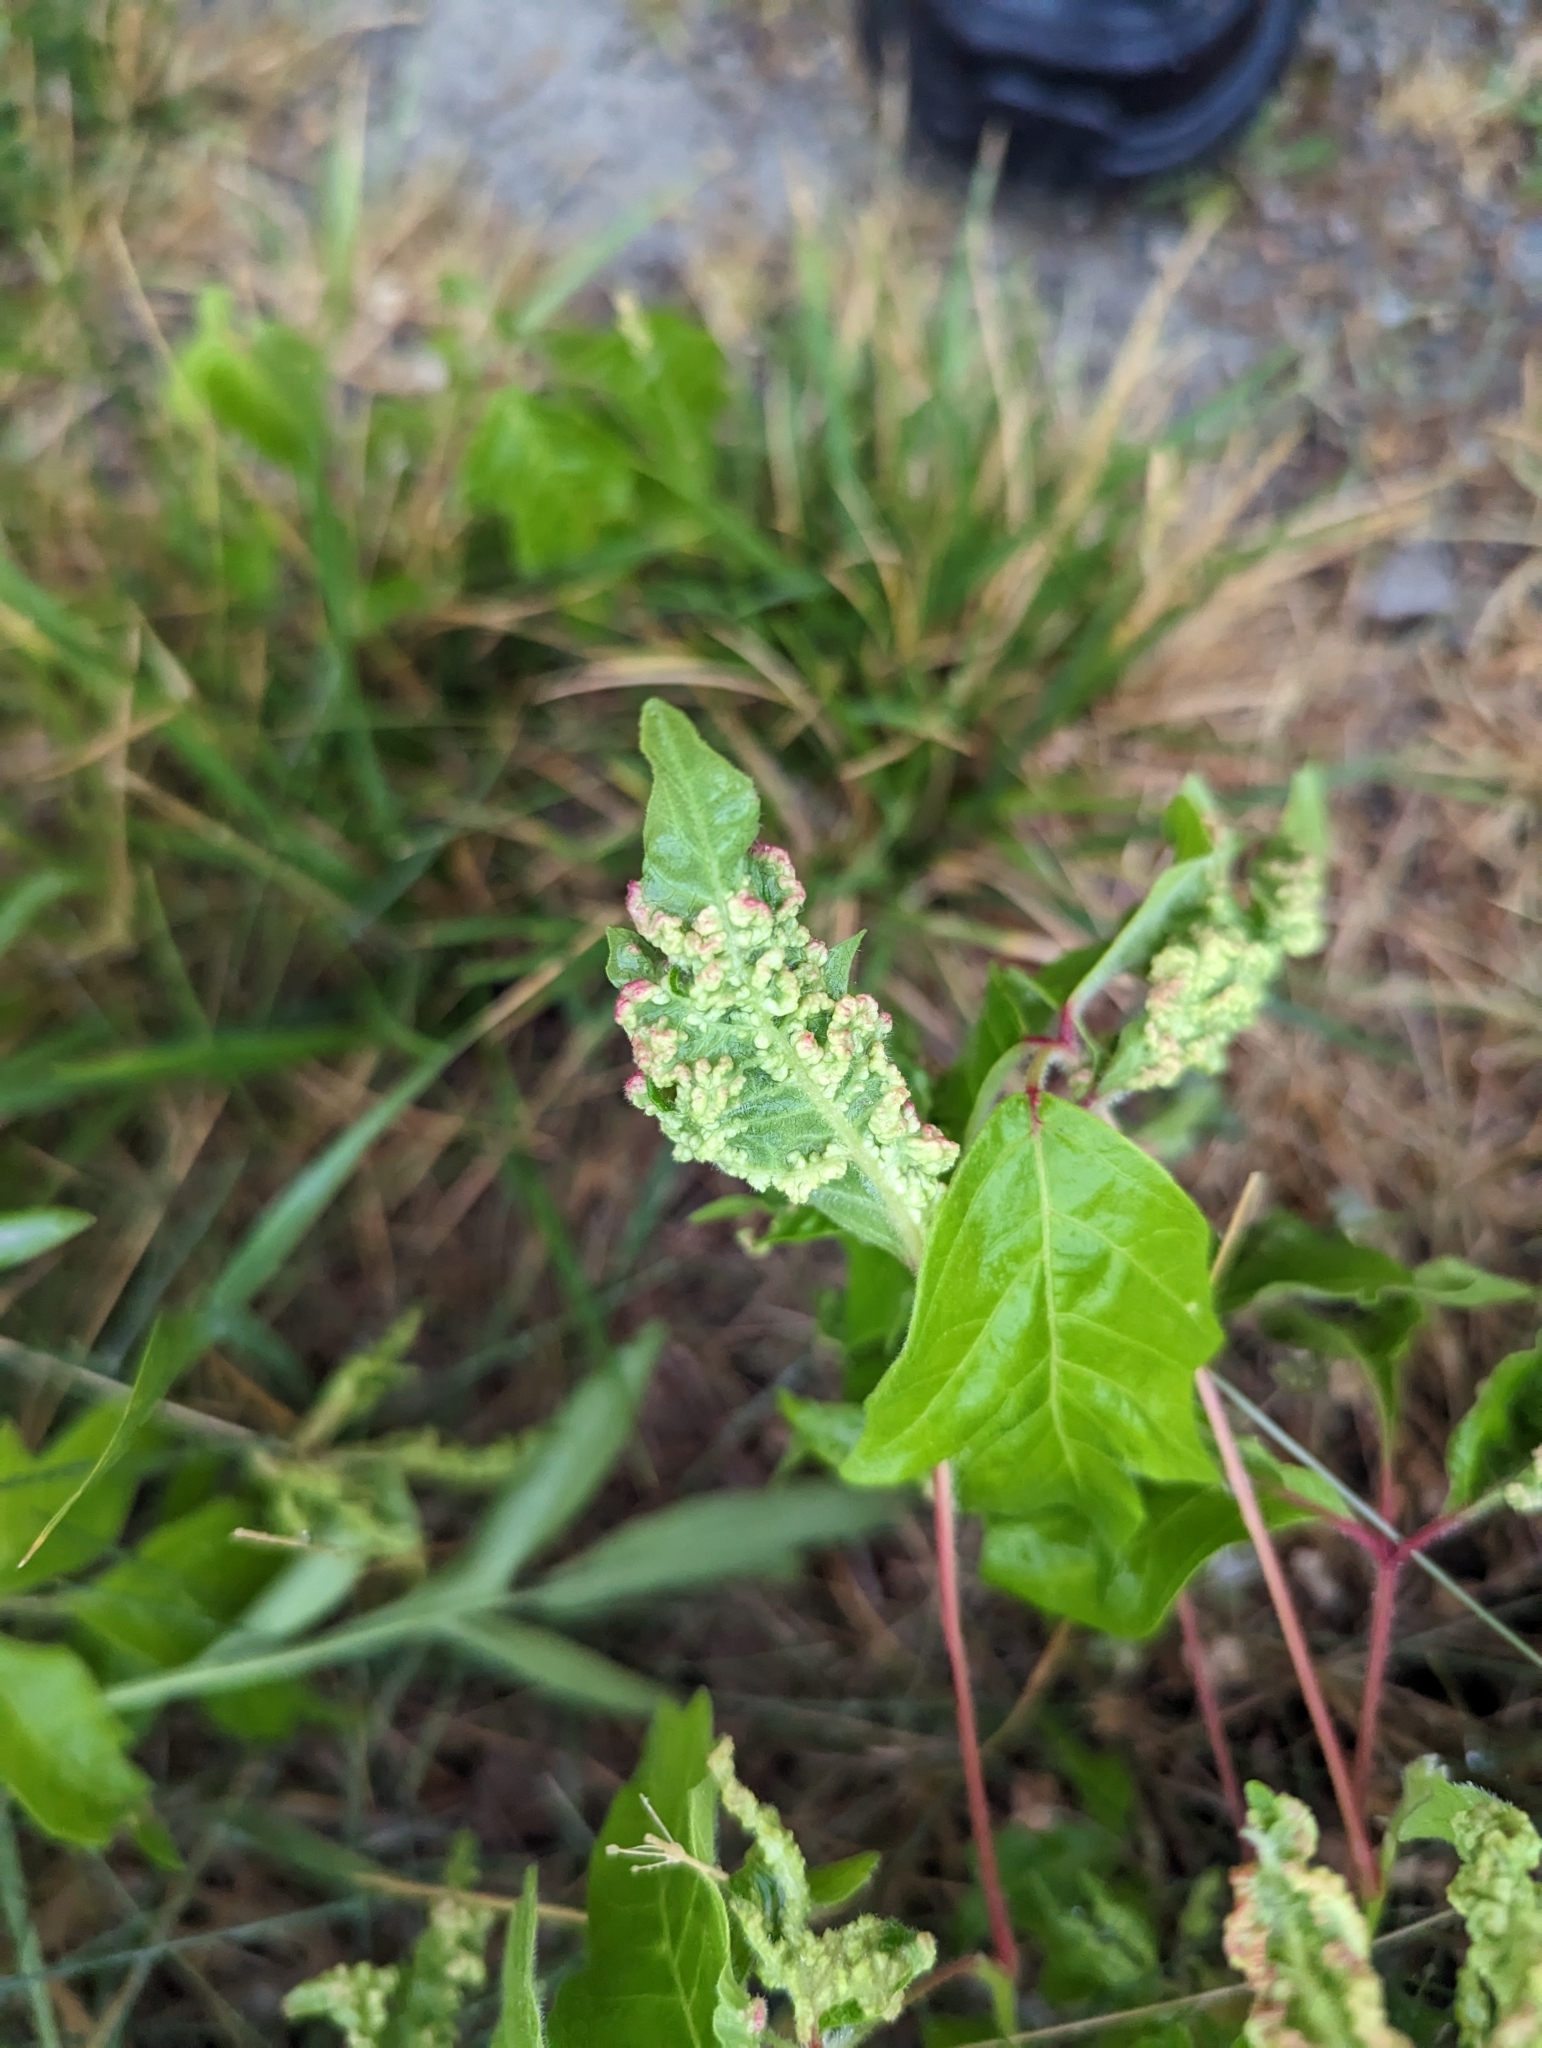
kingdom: Animalia
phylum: Arthropoda
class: Arachnida
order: Trombidiformes
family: Eriophyidae
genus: Aculops
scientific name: Aculops
